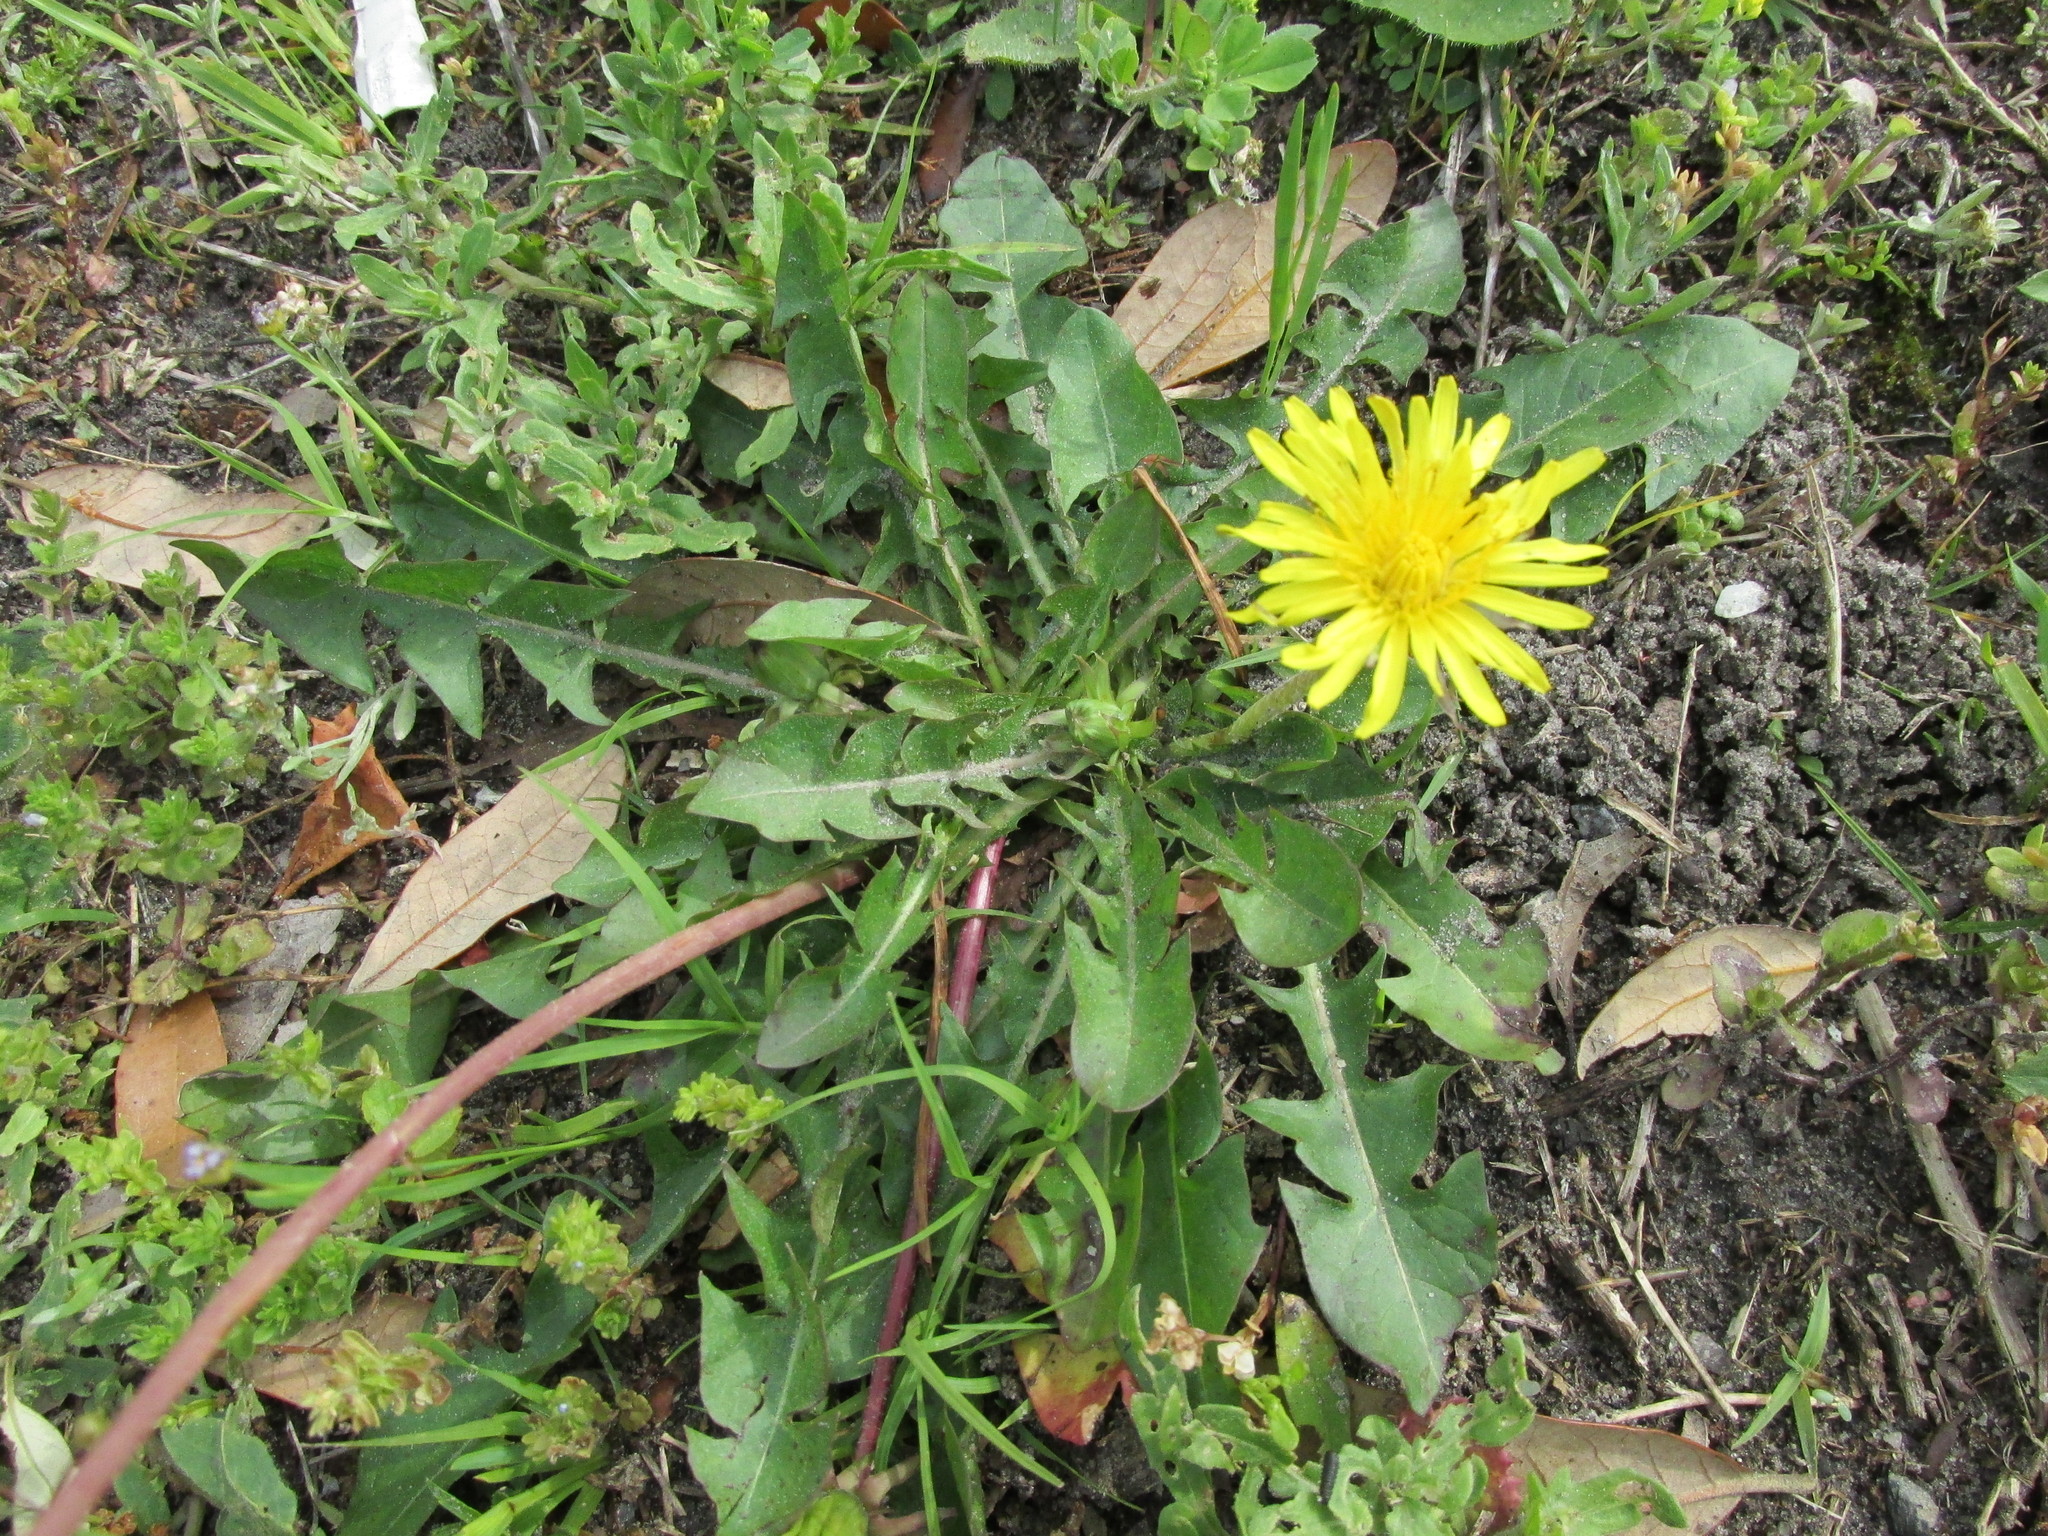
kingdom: Plantae
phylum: Tracheophyta
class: Magnoliopsida
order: Asterales
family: Asteraceae
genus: Taraxacum
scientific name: Taraxacum officinale
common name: Common dandelion
